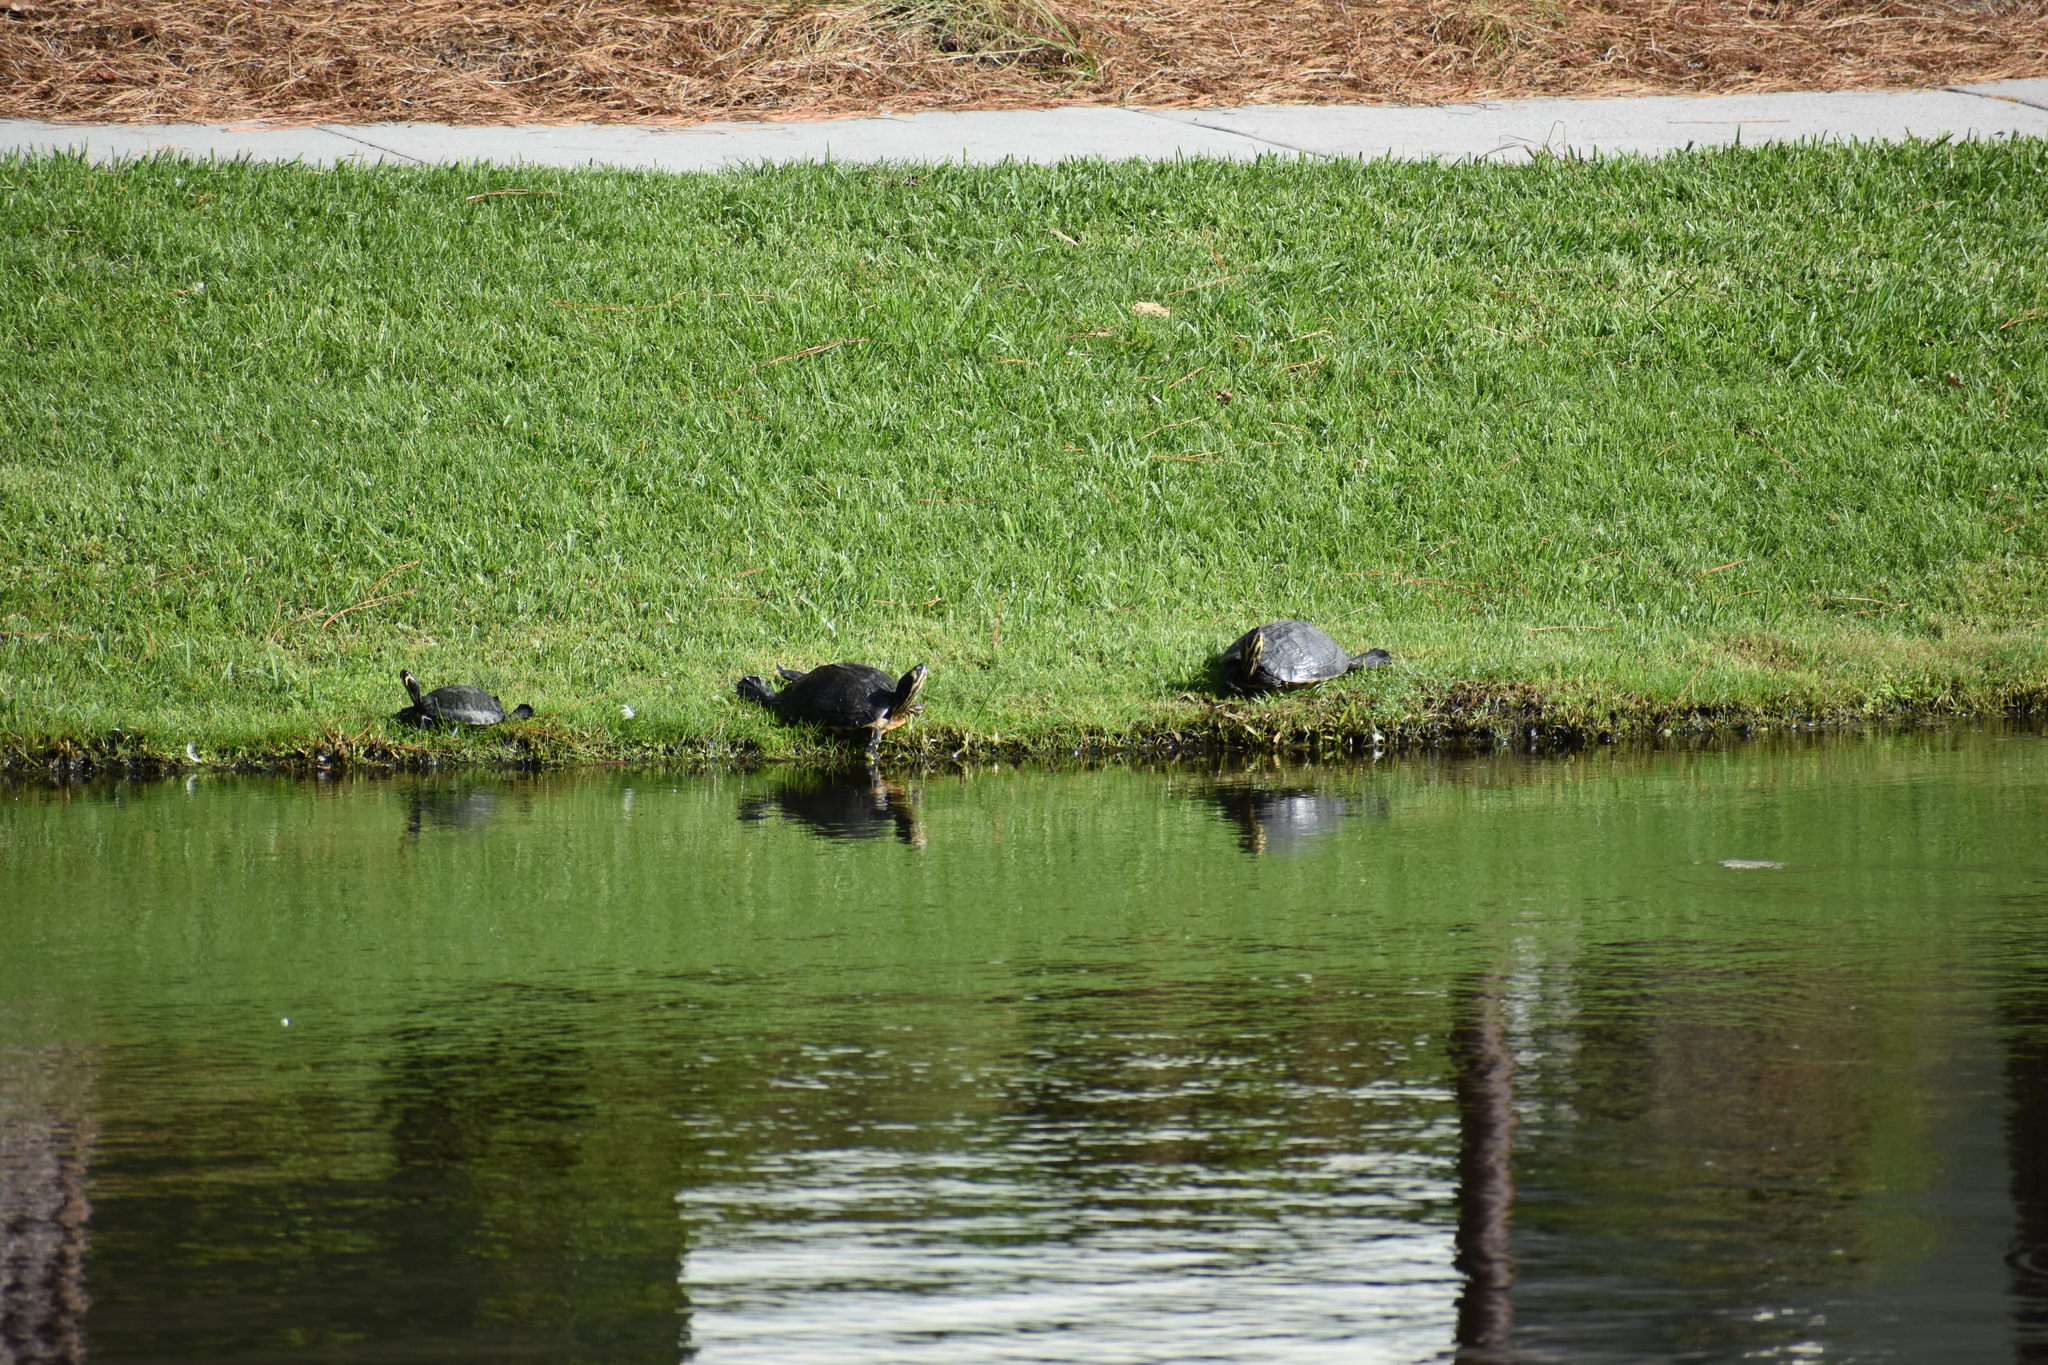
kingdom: Animalia
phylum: Chordata
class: Testudines
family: Emydidae
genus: Trachemys
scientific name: Trachemys scripta
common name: Slider
